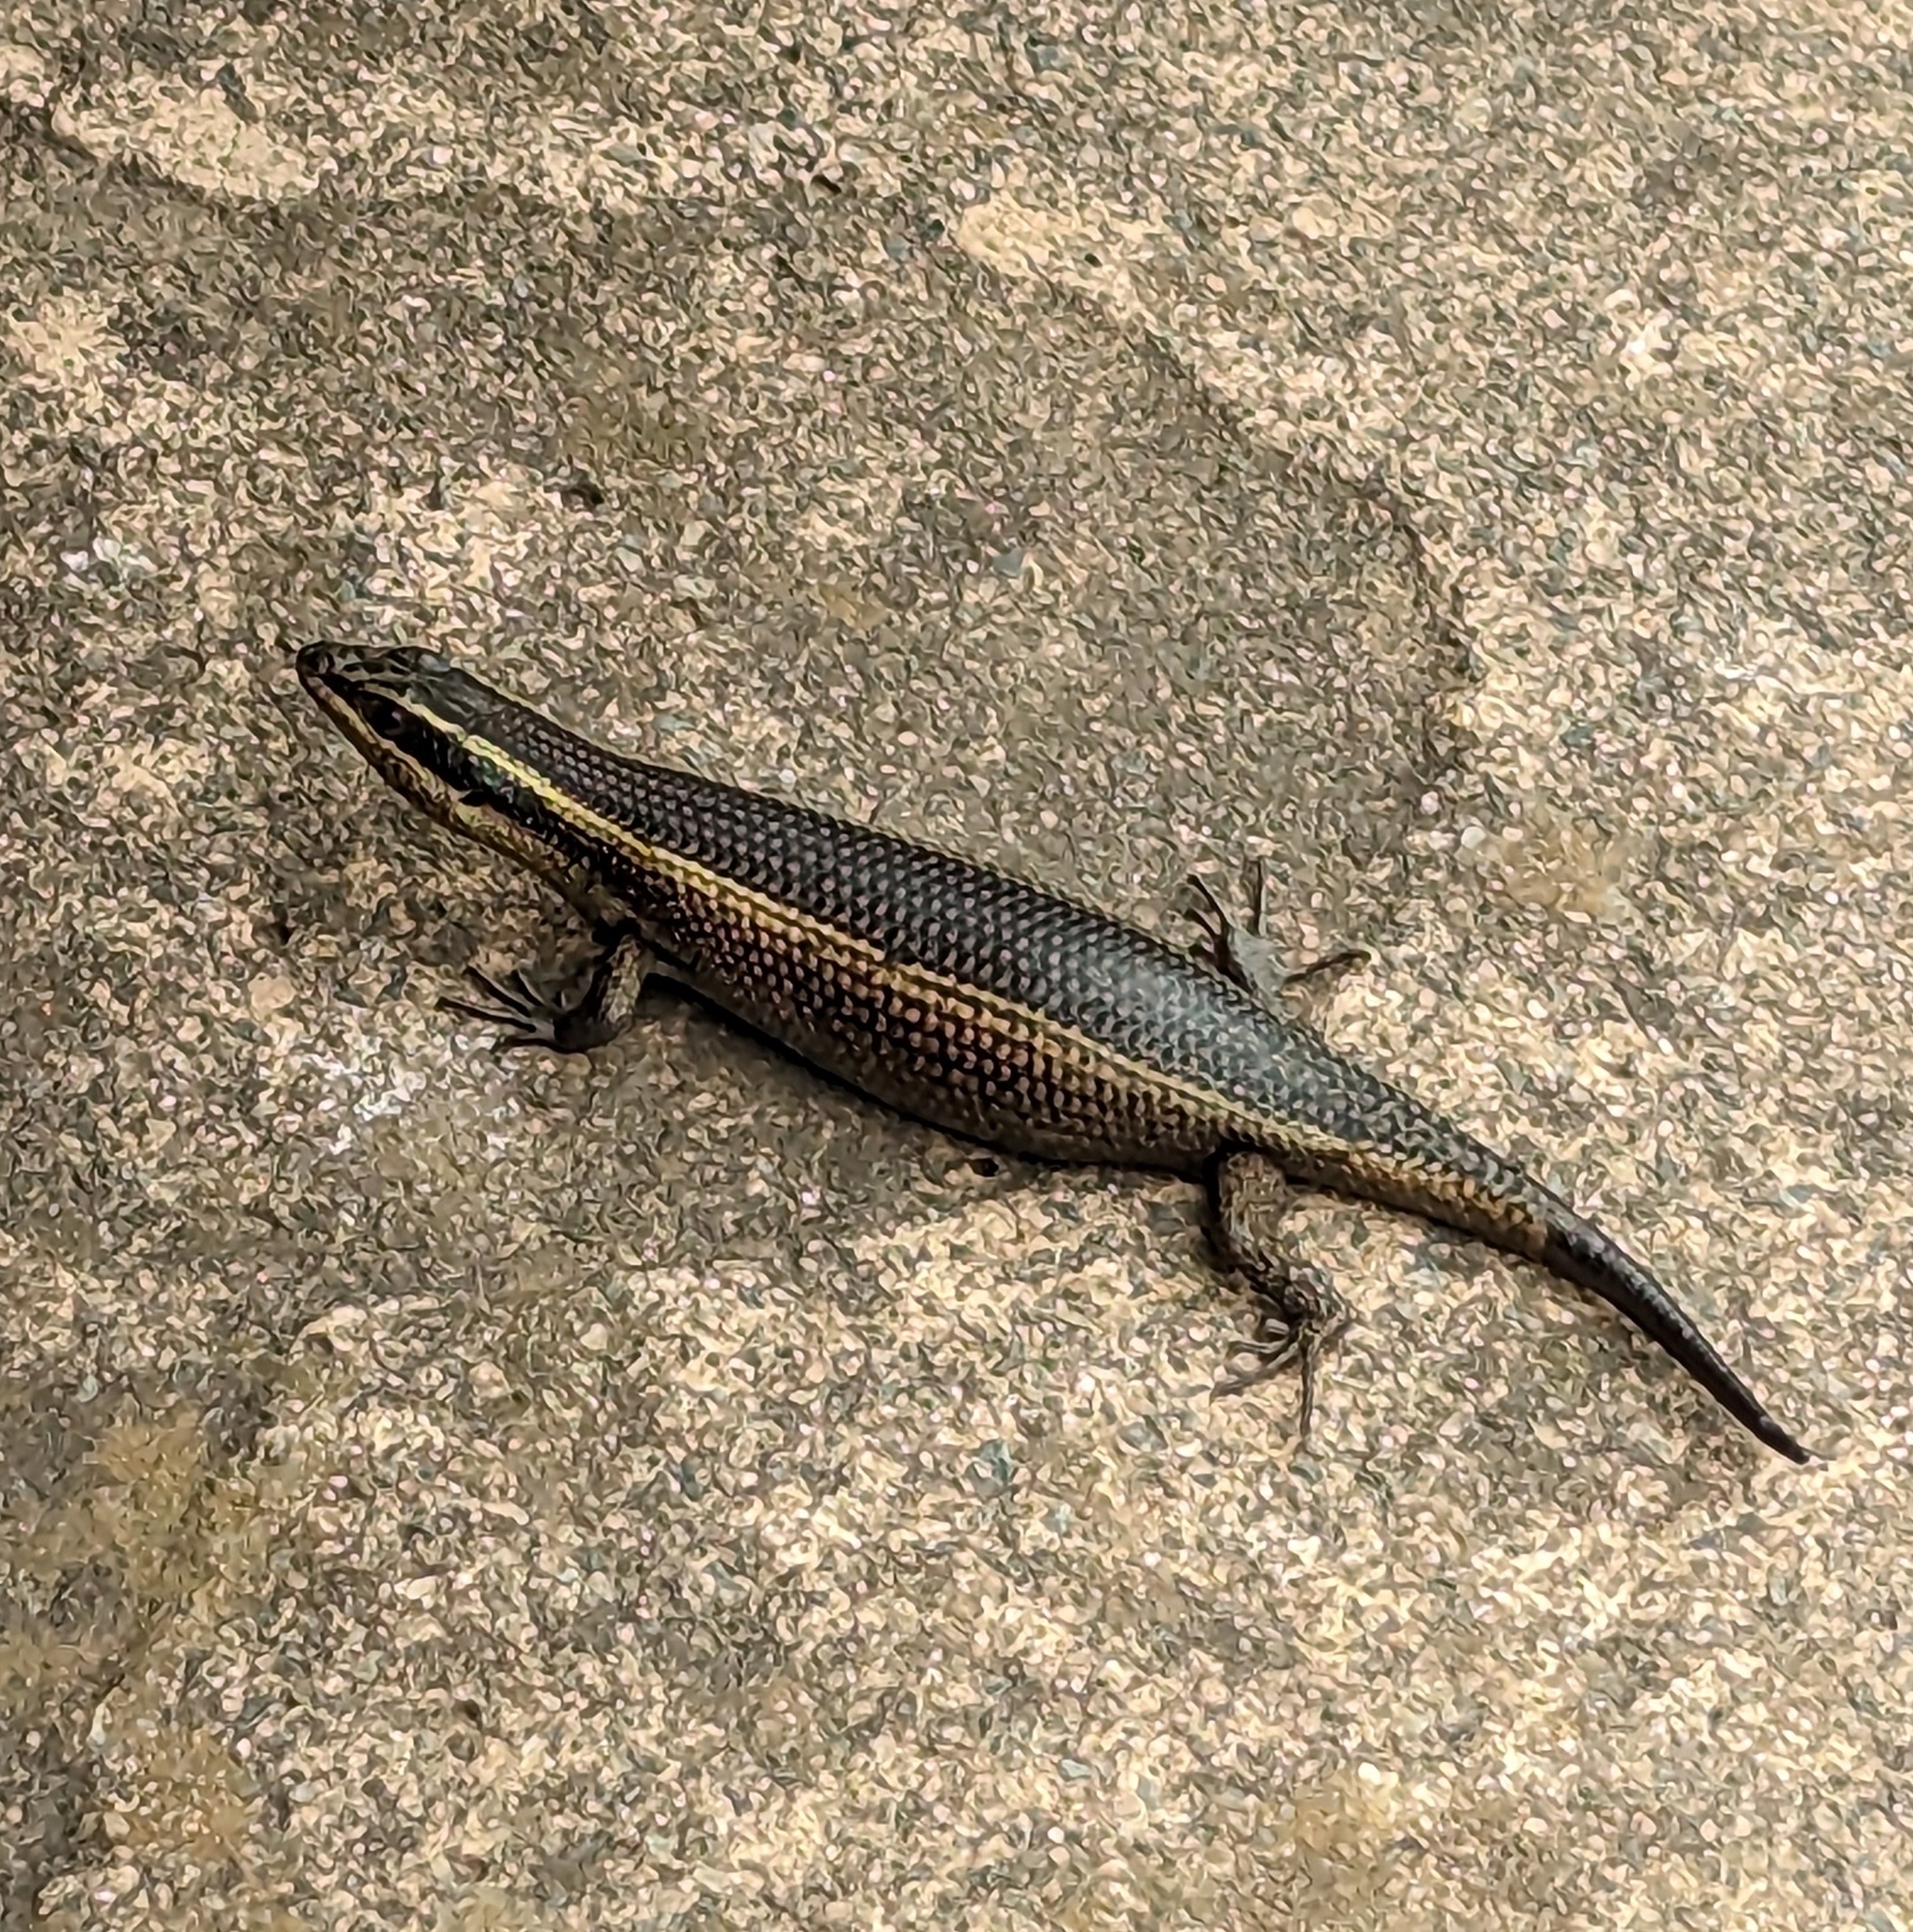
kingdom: Animalia
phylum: Chordata
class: Squamata
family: Scincidae
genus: Trachylepis
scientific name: Trachylepis punctatissima
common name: Montane speckled skink
